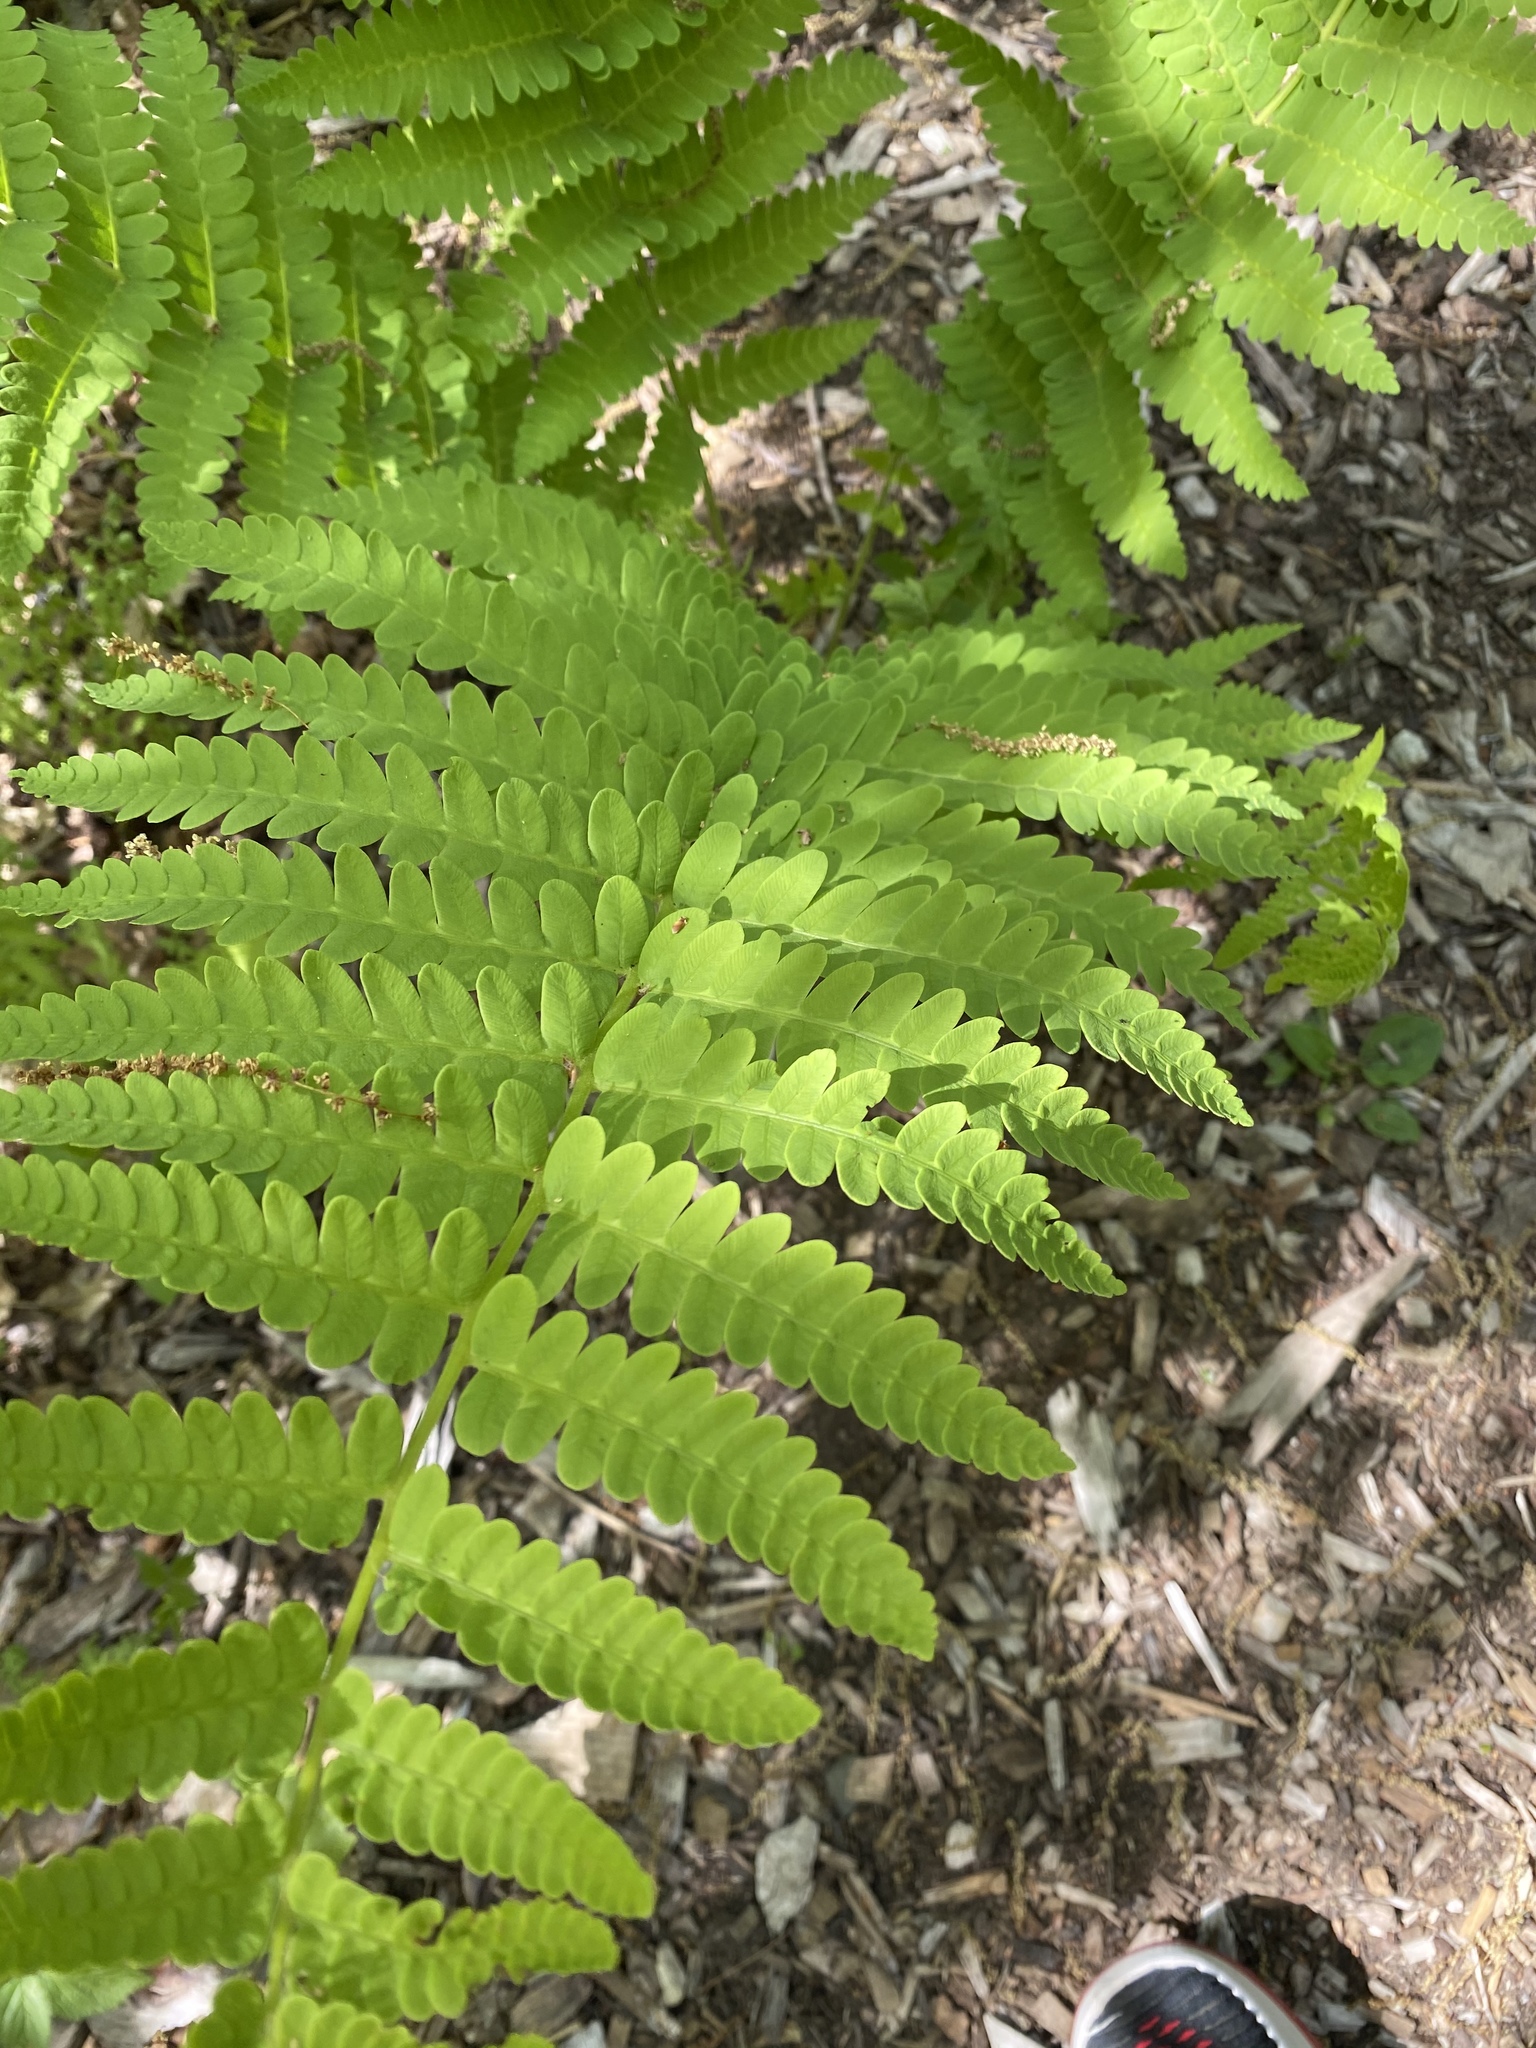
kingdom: Plantae
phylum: Tracheophyta
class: Polypodiopsida
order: Osmundales
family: Osmundaceae
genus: Claytosmunda
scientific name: Claytosmunda claytoniana
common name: Clayton's fern
